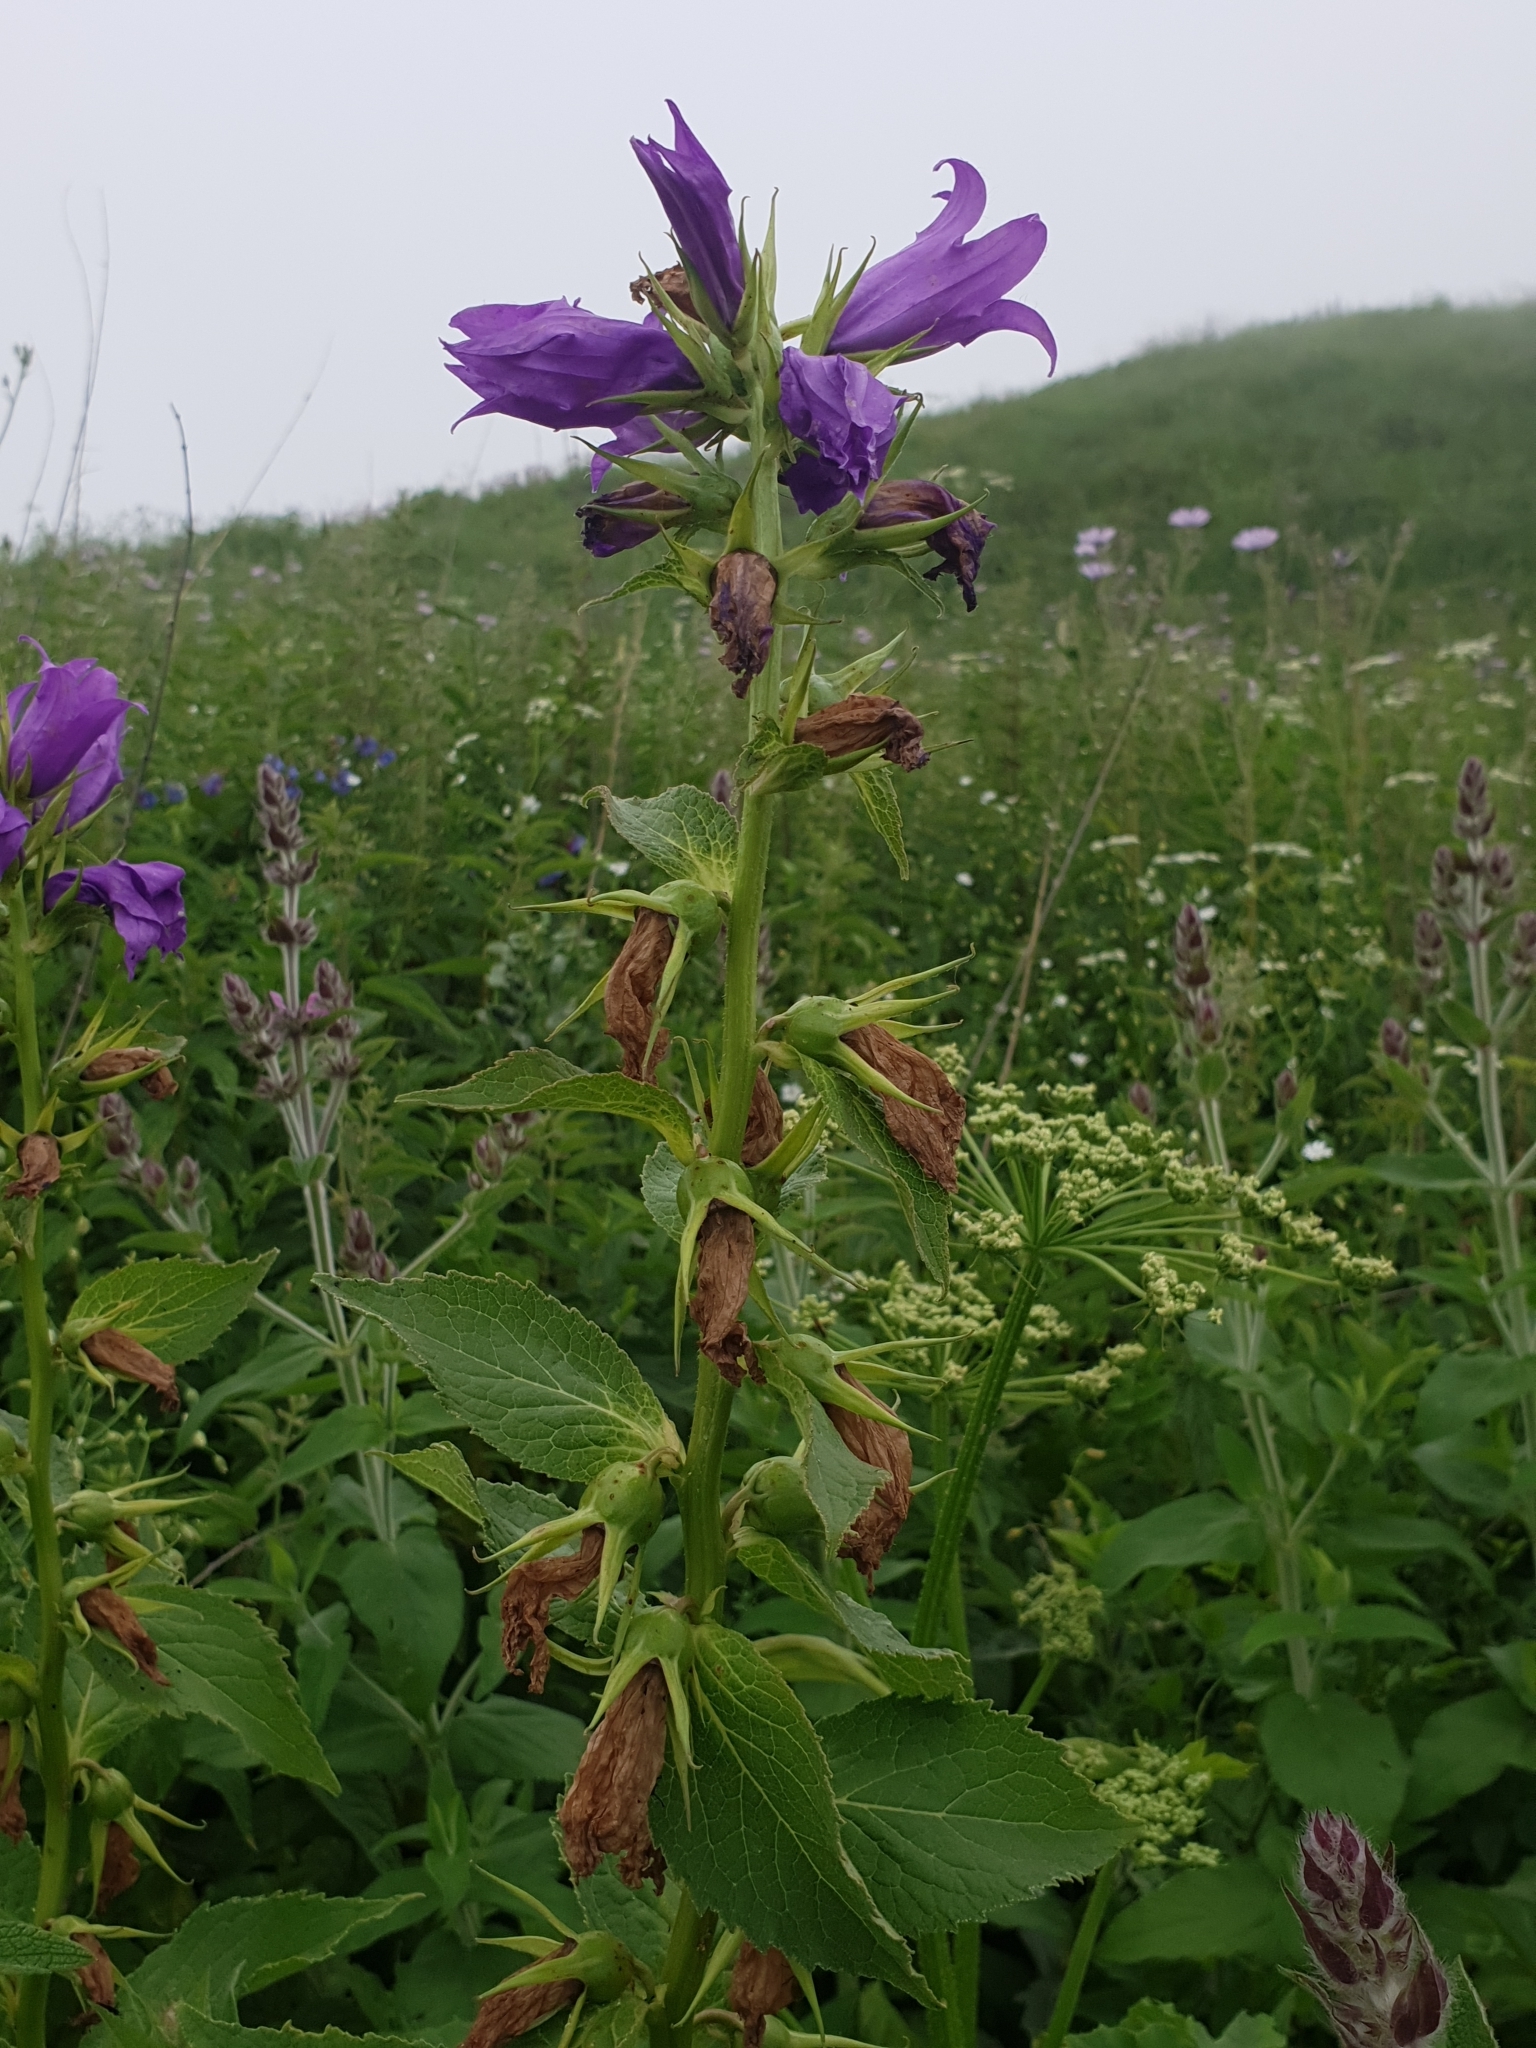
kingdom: Plantae
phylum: Tracheophyta
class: Magnoliopsida
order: Asterales
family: Campanulaceae
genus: Campanula
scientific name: Campanula latifolia
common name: Giant bellflower
